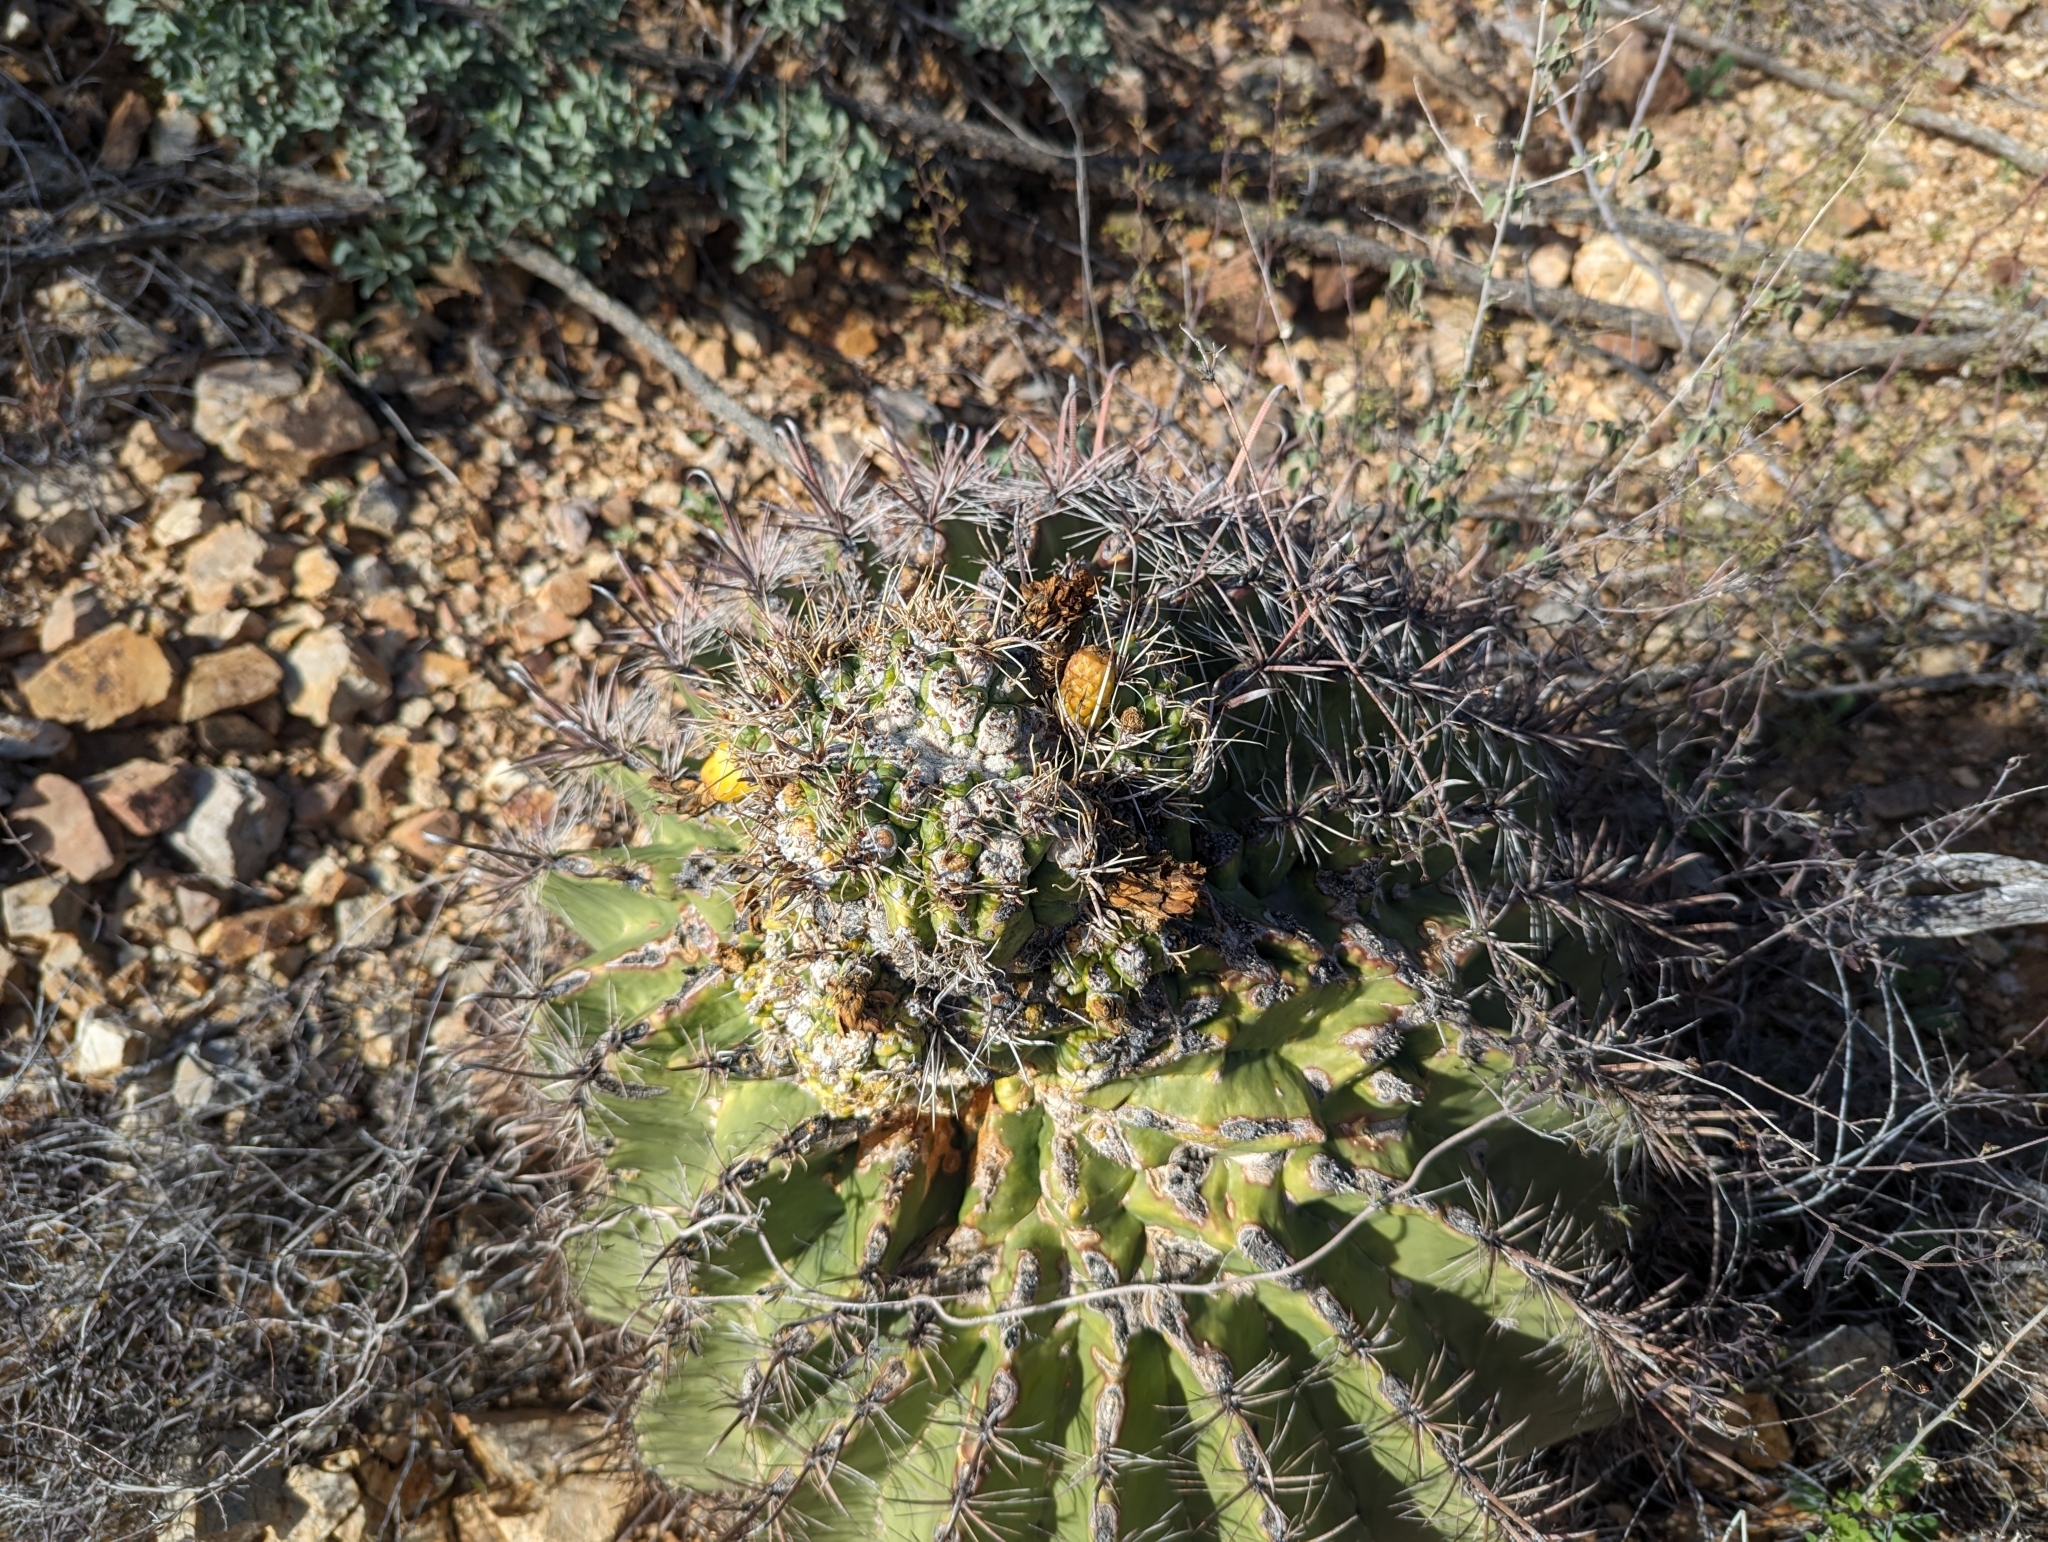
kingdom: Plantae
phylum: Tracheophyta
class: Magnoliopsida
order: Caryophyllales
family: Cactaceae
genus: Ferocactus
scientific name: Ferocactus wislizeni
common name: Candy barrel cactus
